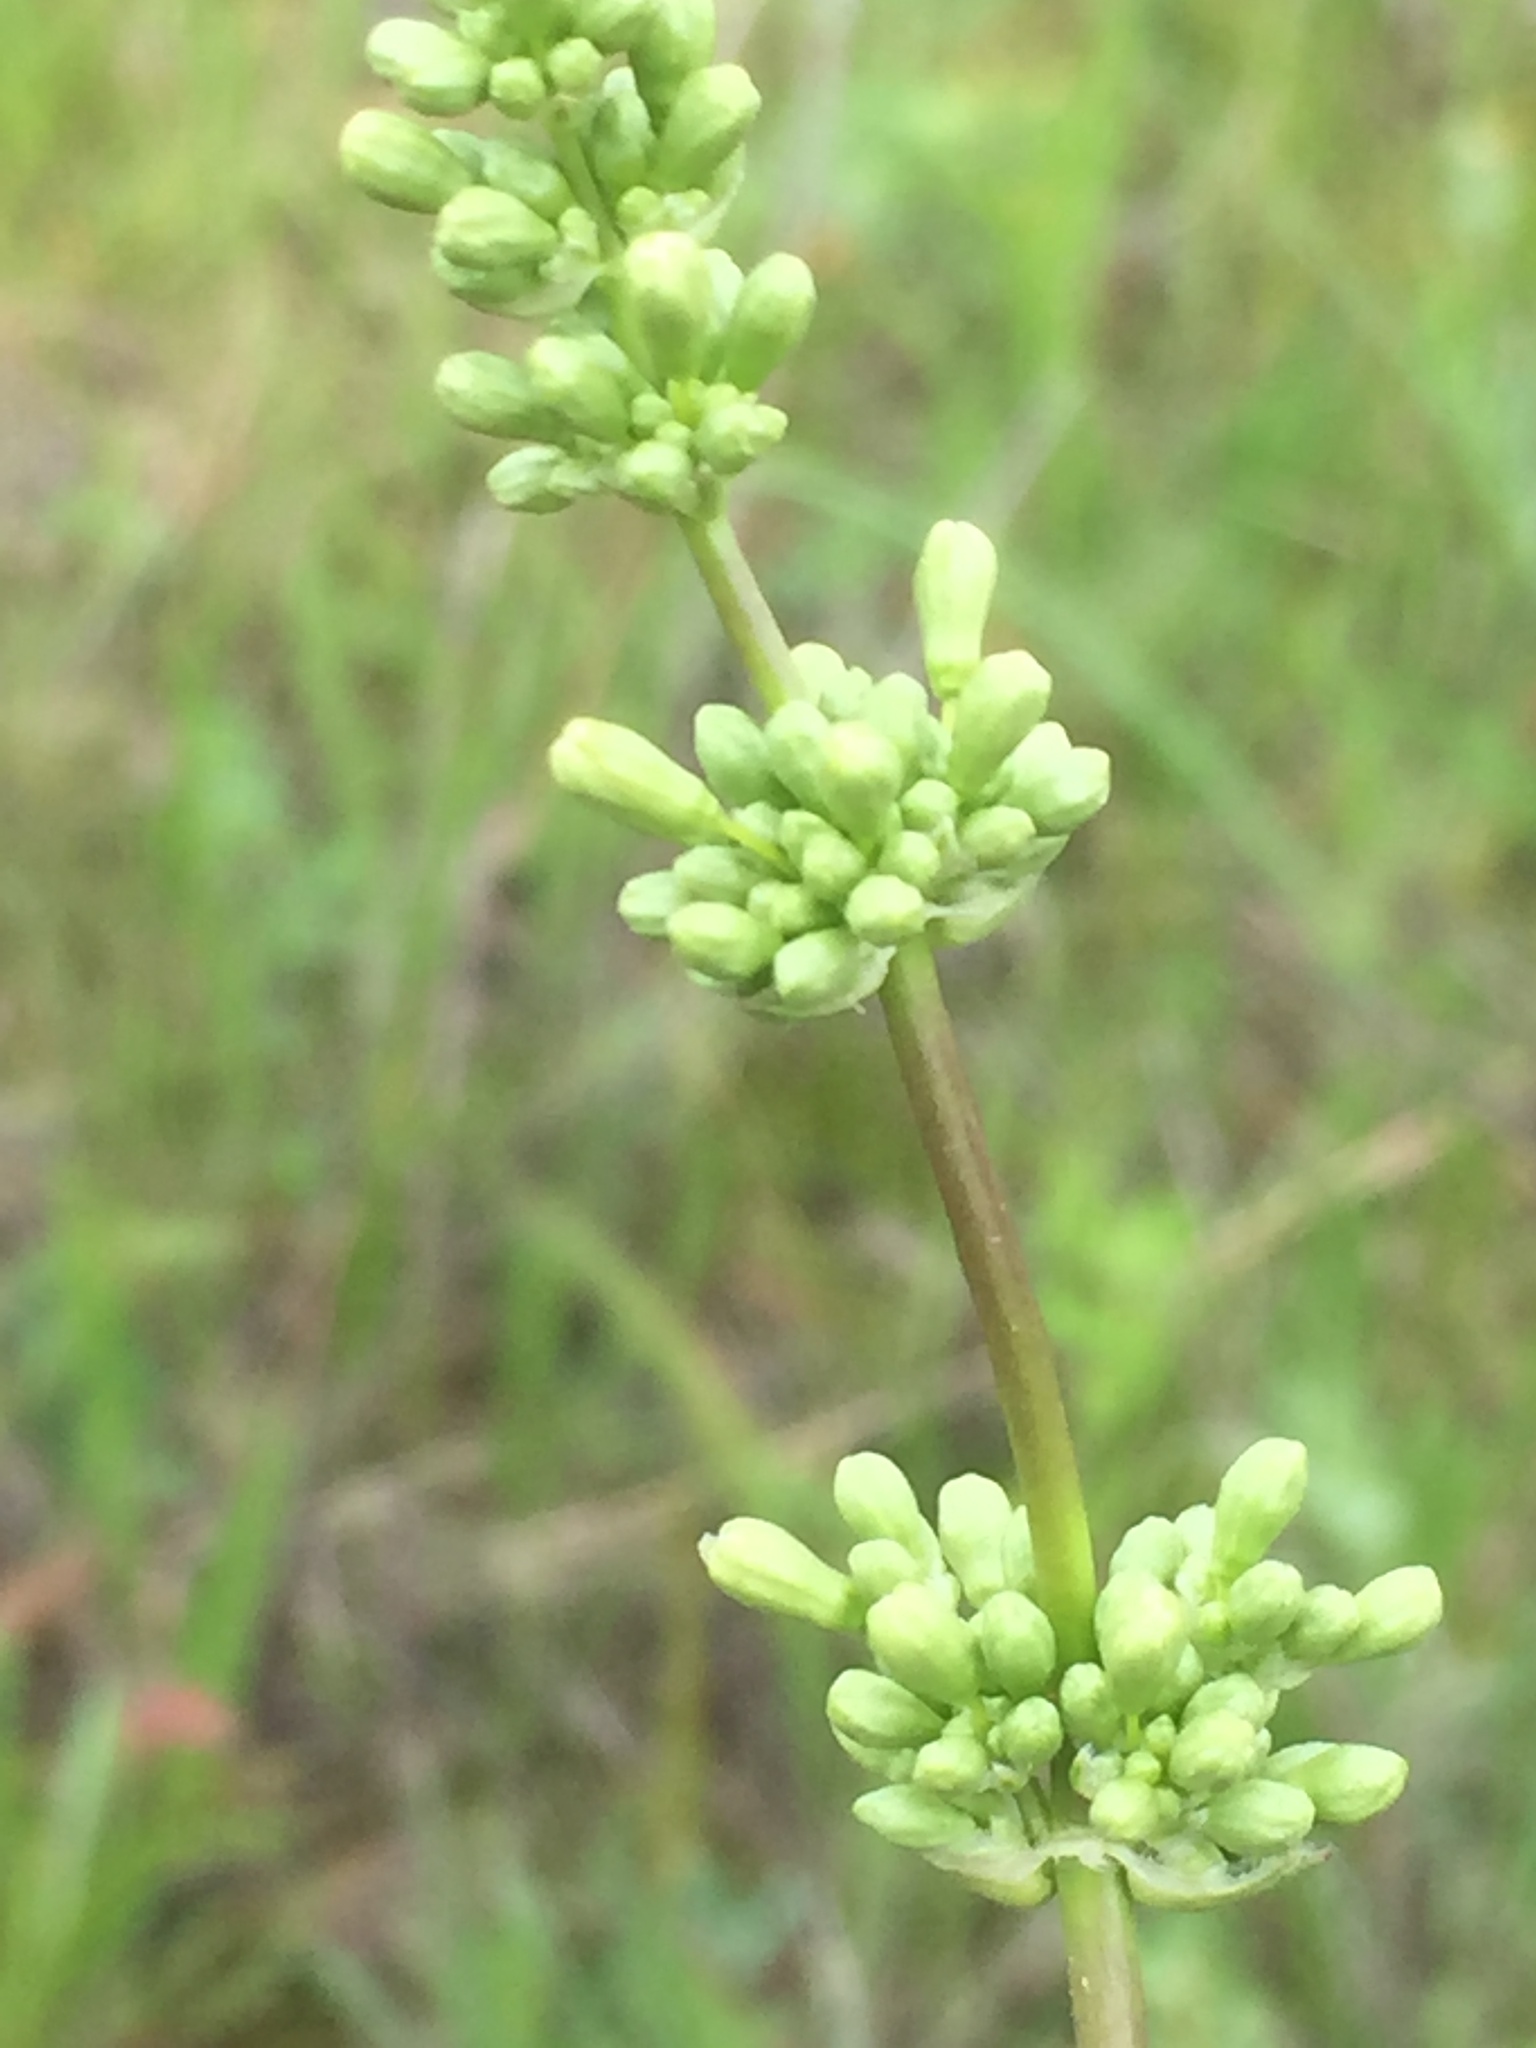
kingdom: Plantae
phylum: Tracheophyta
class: Magnoliopsida
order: Caryophyllales
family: Caryophyllaceae
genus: Silene
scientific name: Silene borysthenica
